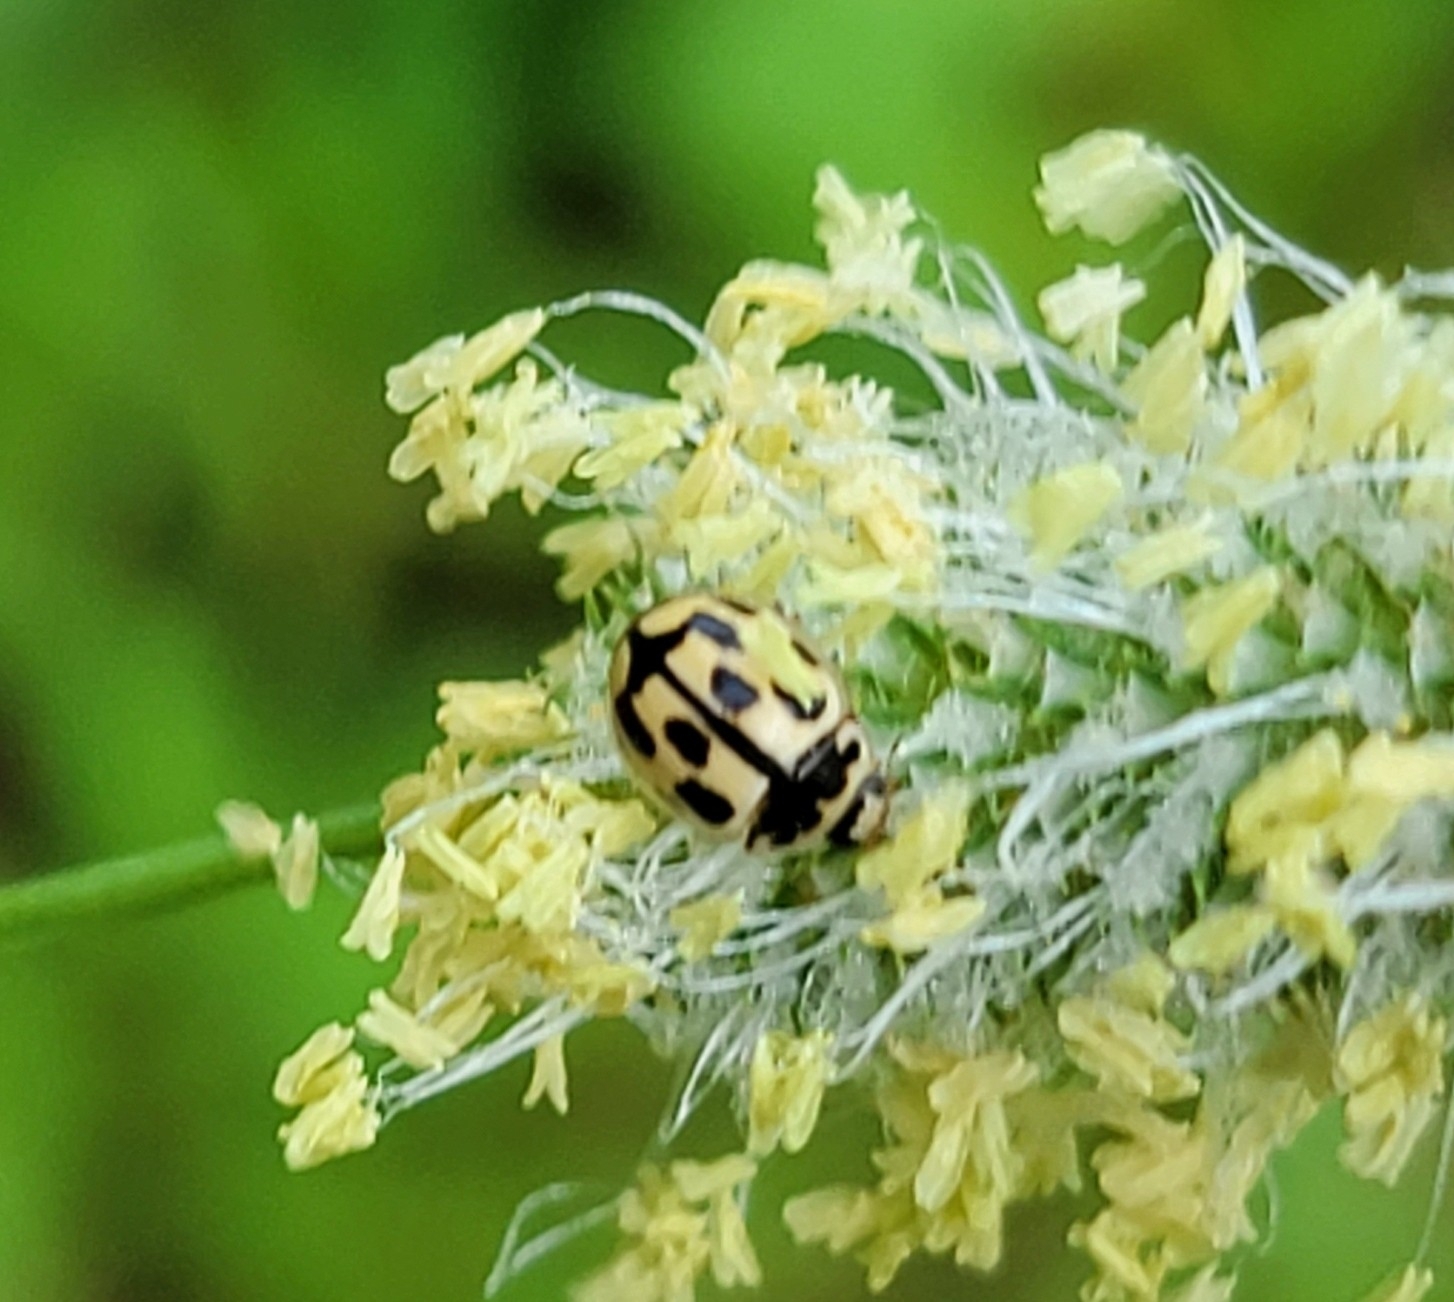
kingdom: Animalia
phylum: Arthropoda
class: Insecta
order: Coleoptera
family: Coccinellidae
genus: Propylaea
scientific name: Propylaea quatuordecimpunctata
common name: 14-spotted ladybird beetle
